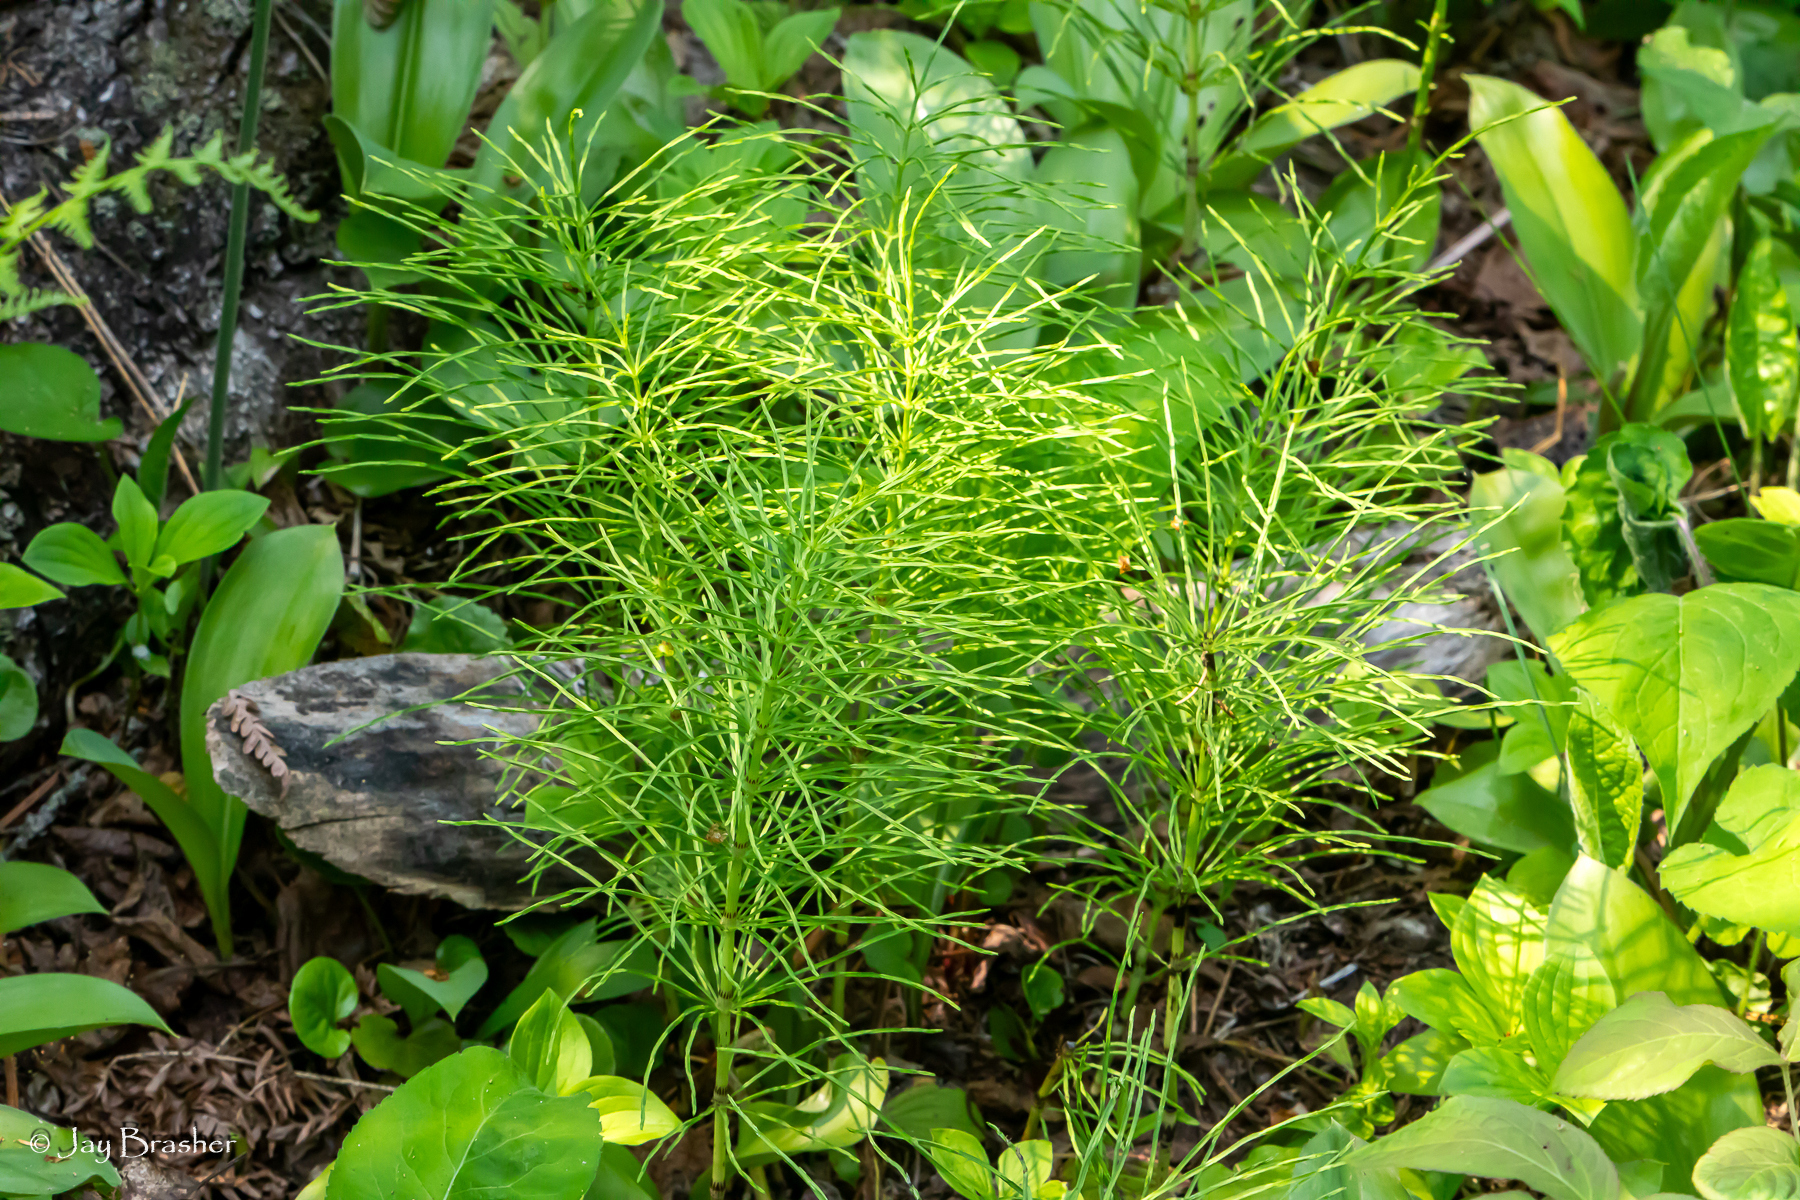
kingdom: Plantae
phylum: Tracheophyta
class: Polypodiopsida
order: Equisetales
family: Equisetaceae
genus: Equisetum
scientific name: Equisetum arvense
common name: Field horsetail
